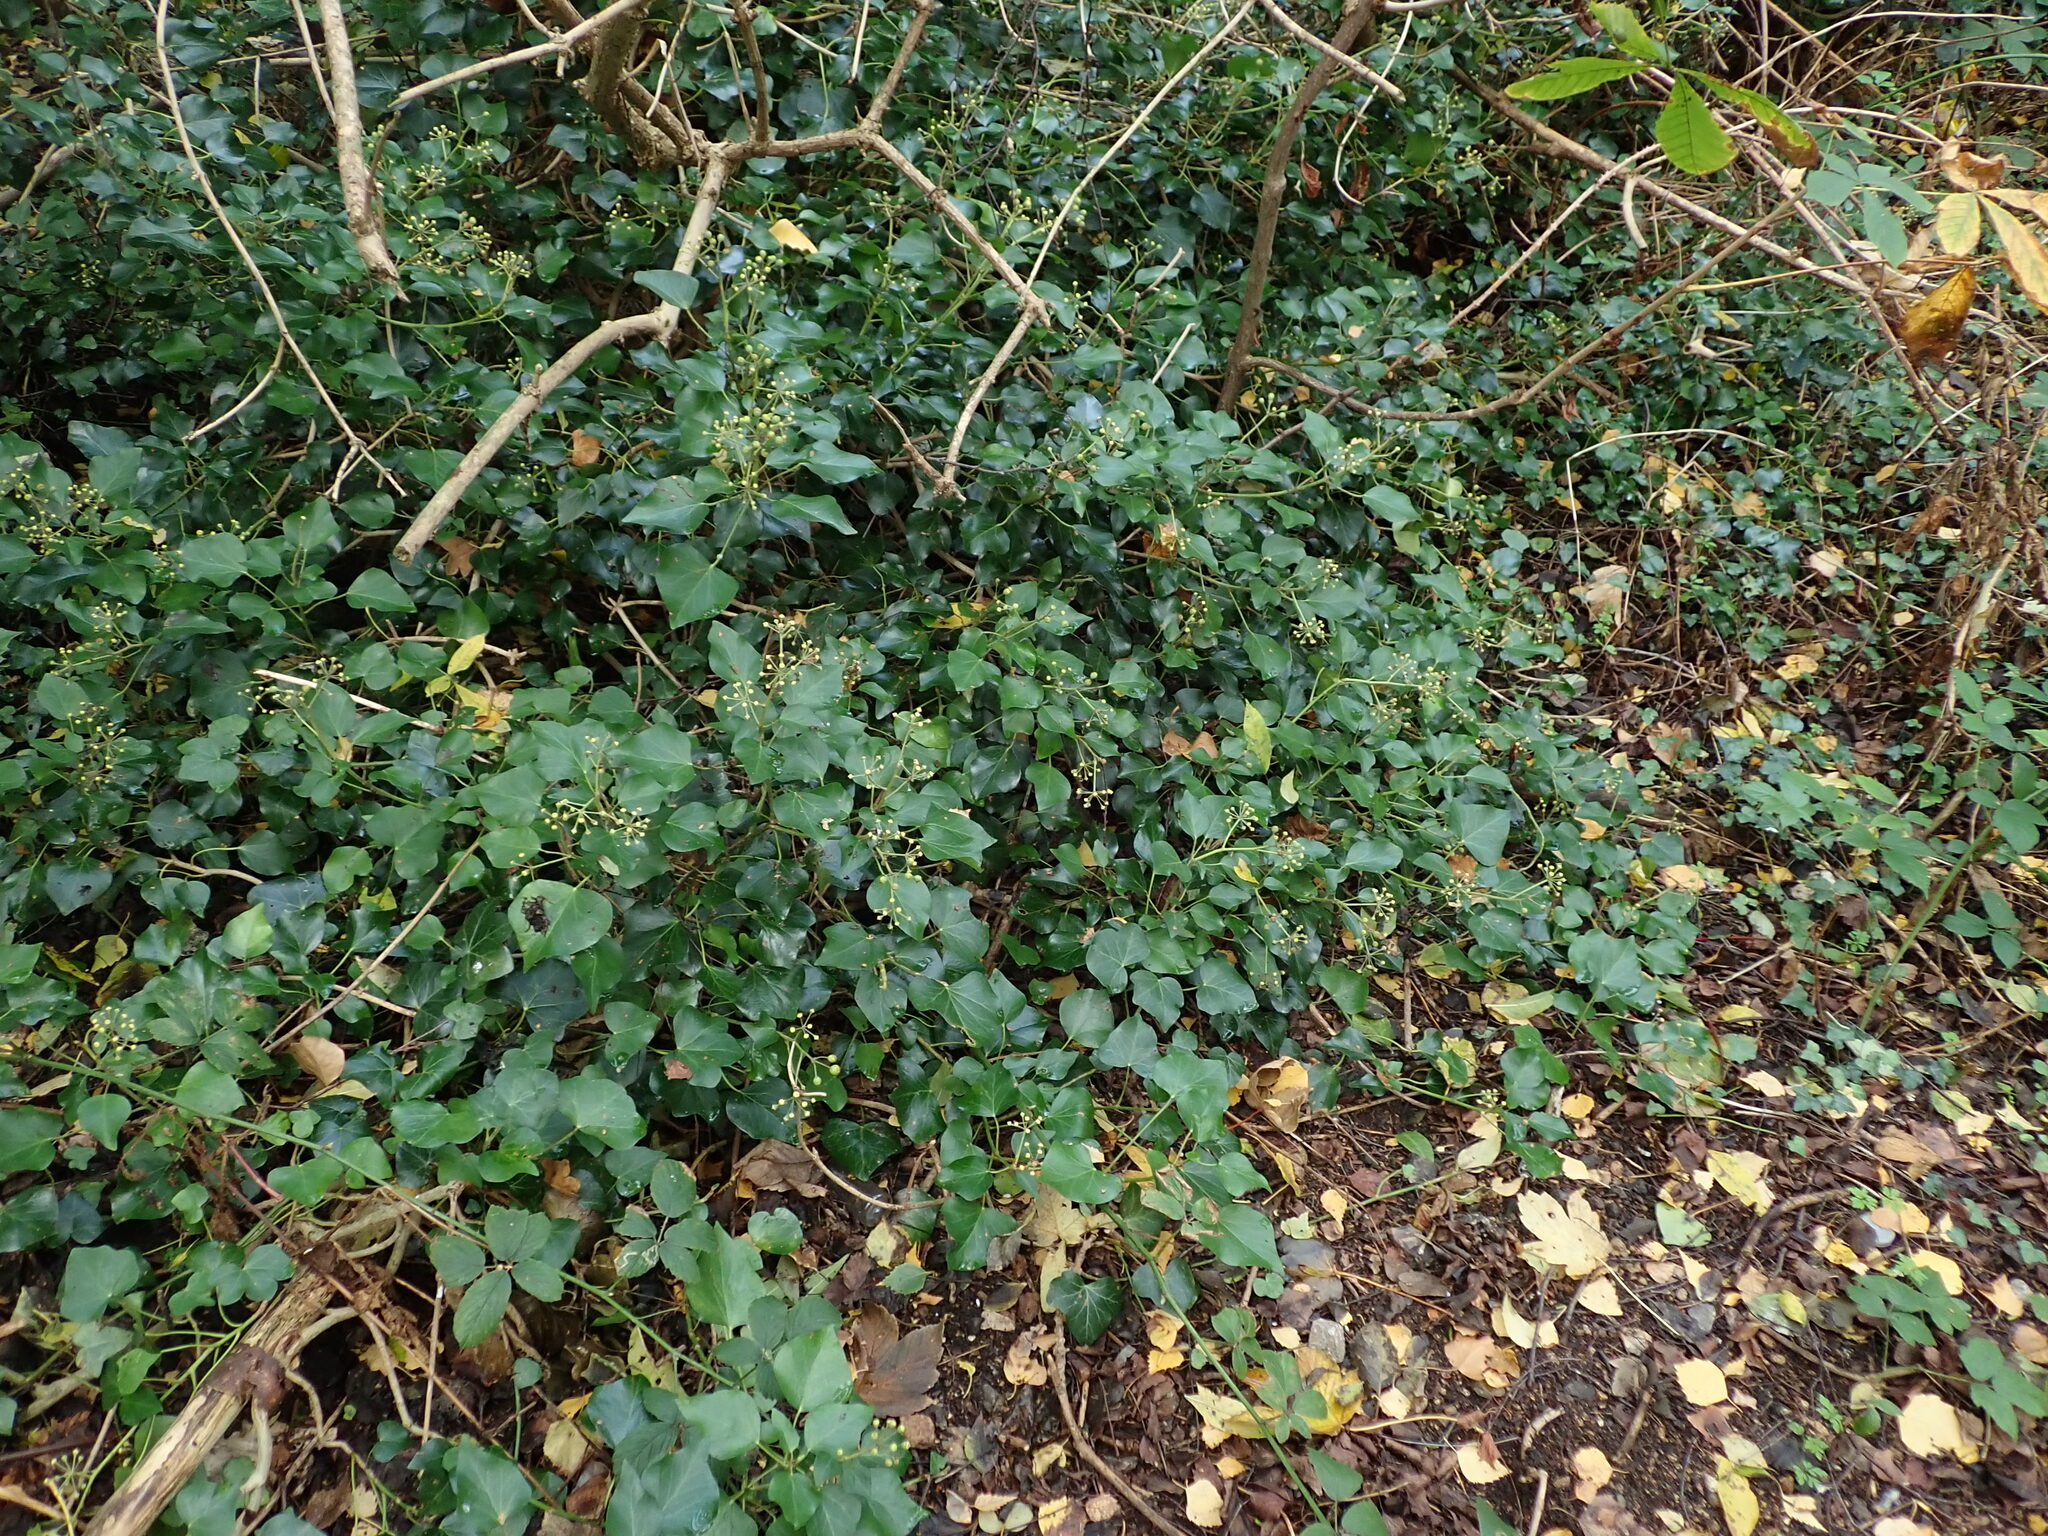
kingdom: Plantae
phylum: Tracheophyta
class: Magnoliopsida
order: Apiales
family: Araliaceae
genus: Hedera
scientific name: Hedera helix
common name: Ivy
